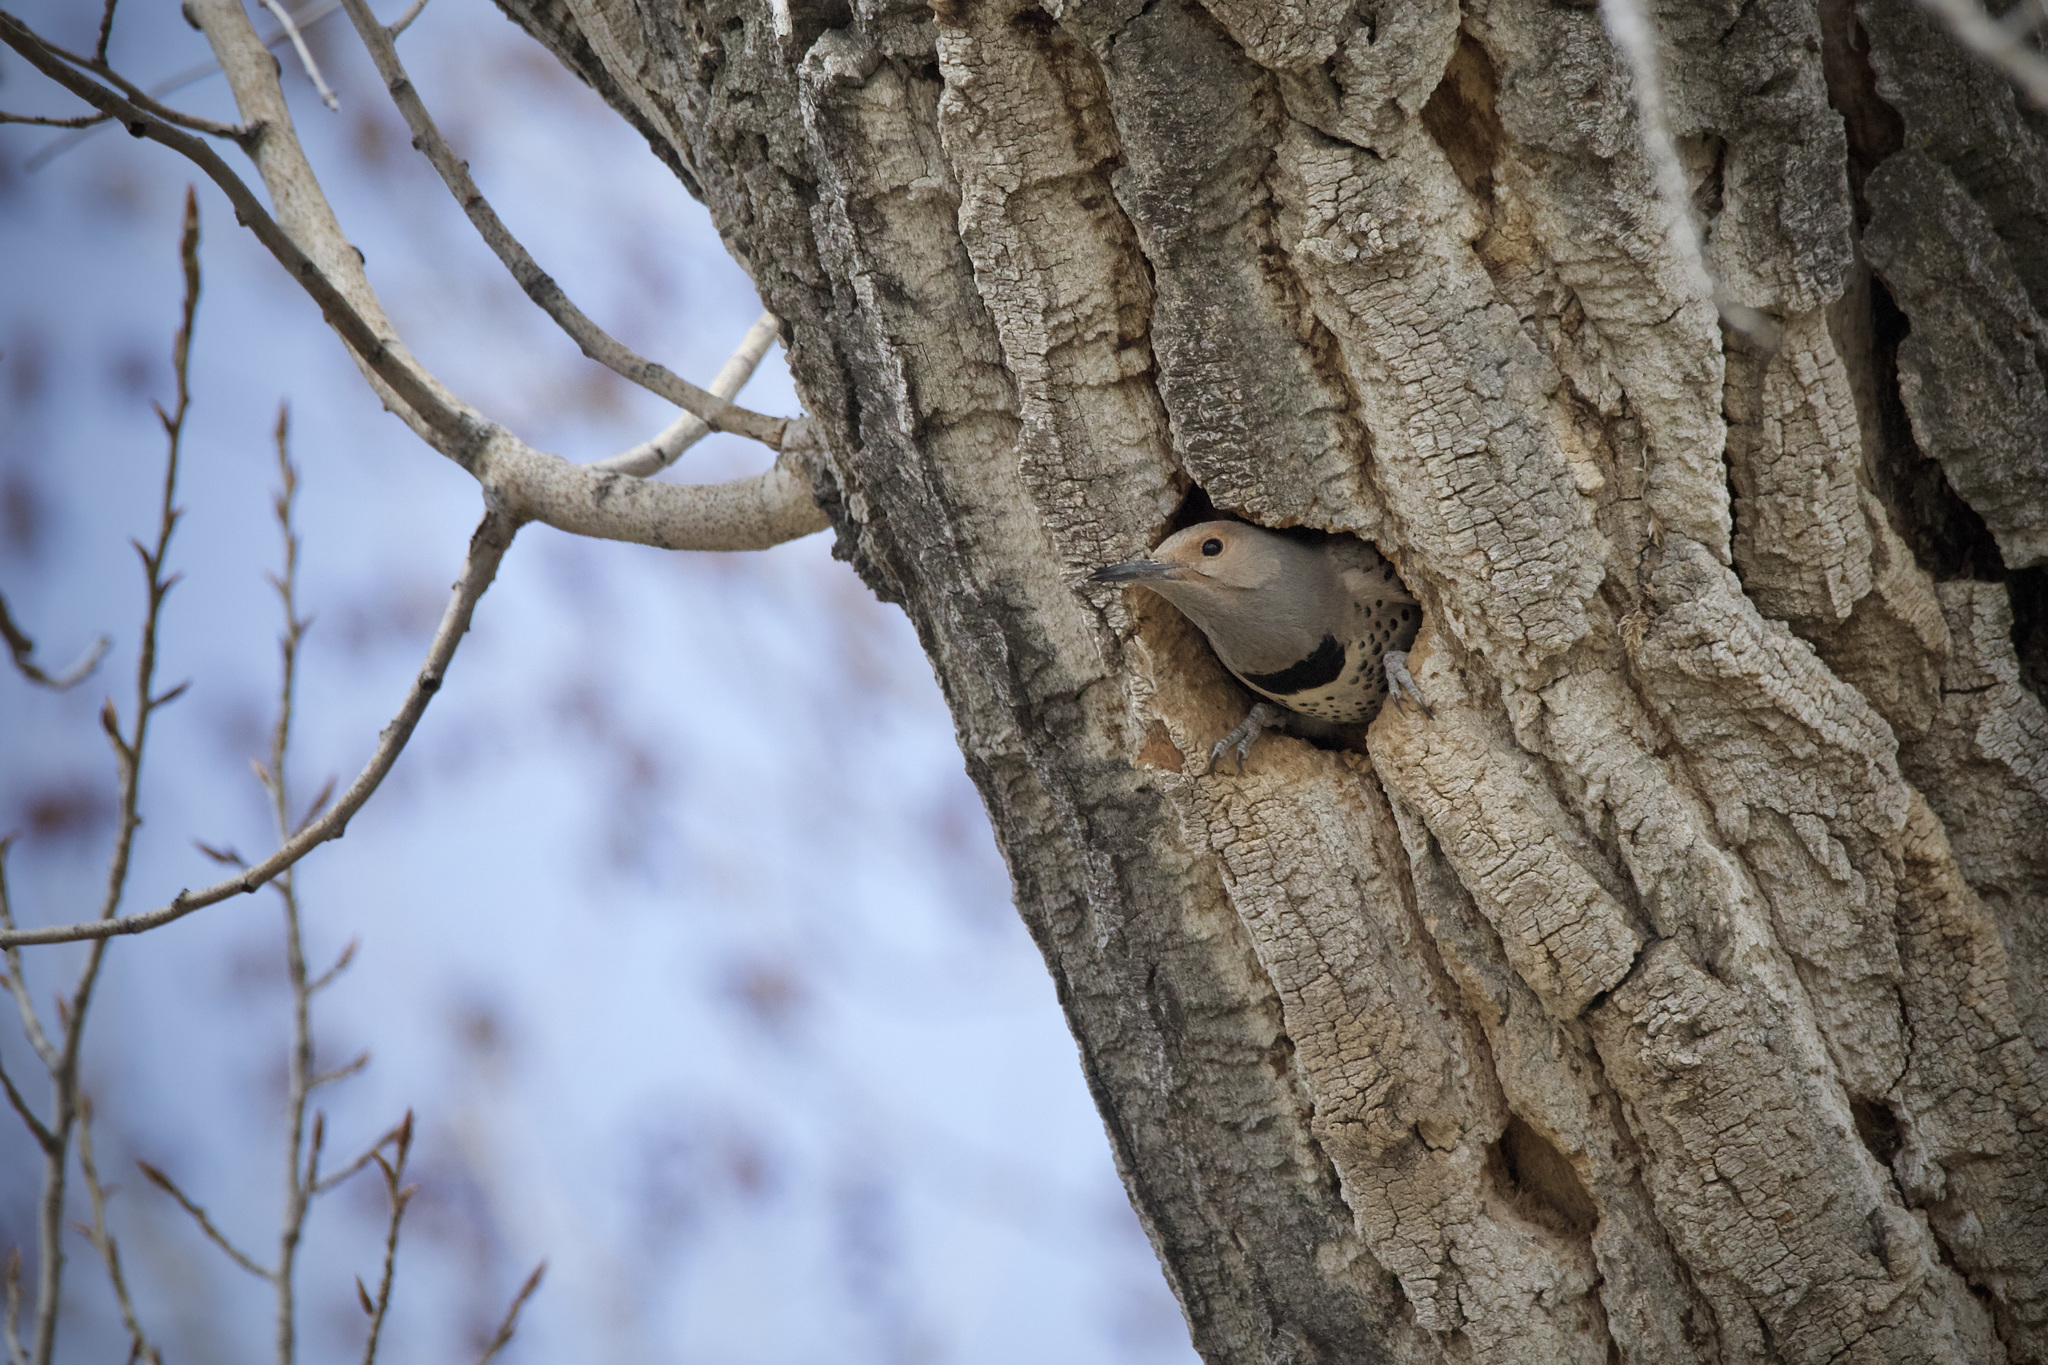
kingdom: Animalia
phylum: Chordata
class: Aves
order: Piciformes
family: Picidae
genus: Colaptes
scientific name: Colaptes auratus
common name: Northern flicker
